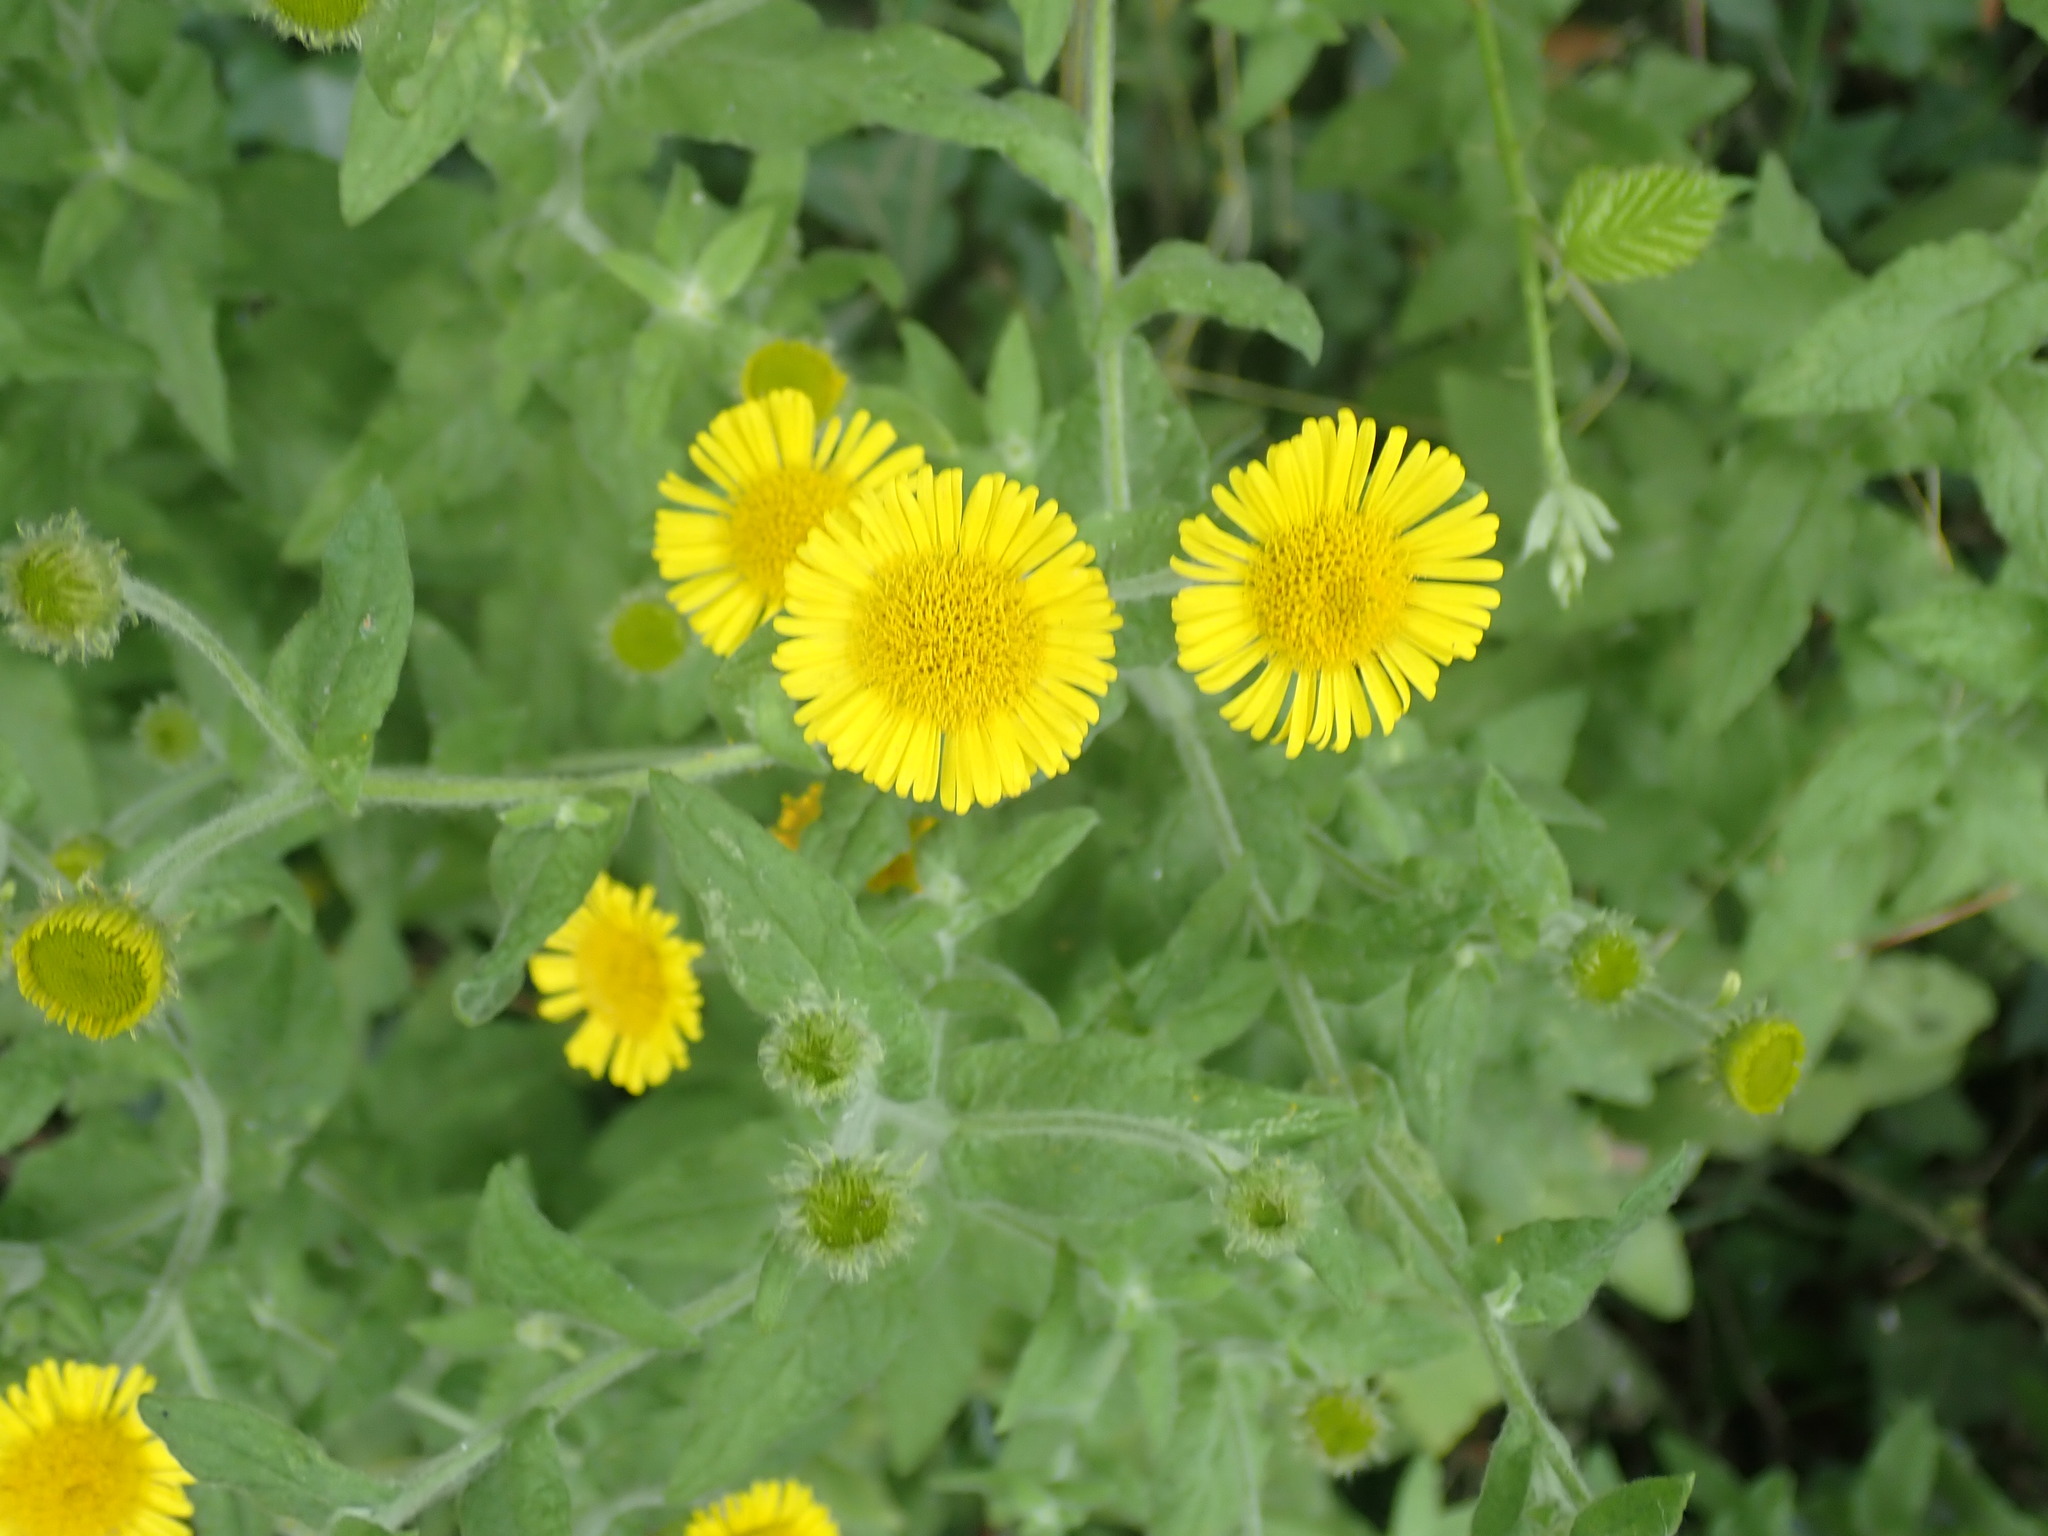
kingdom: Plantae
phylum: Tracheophyta
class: Magnoliopsida
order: Asterales
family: Asteraceae
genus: Pulicaria
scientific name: Pulicaria dysenterica
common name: Common fleabane
